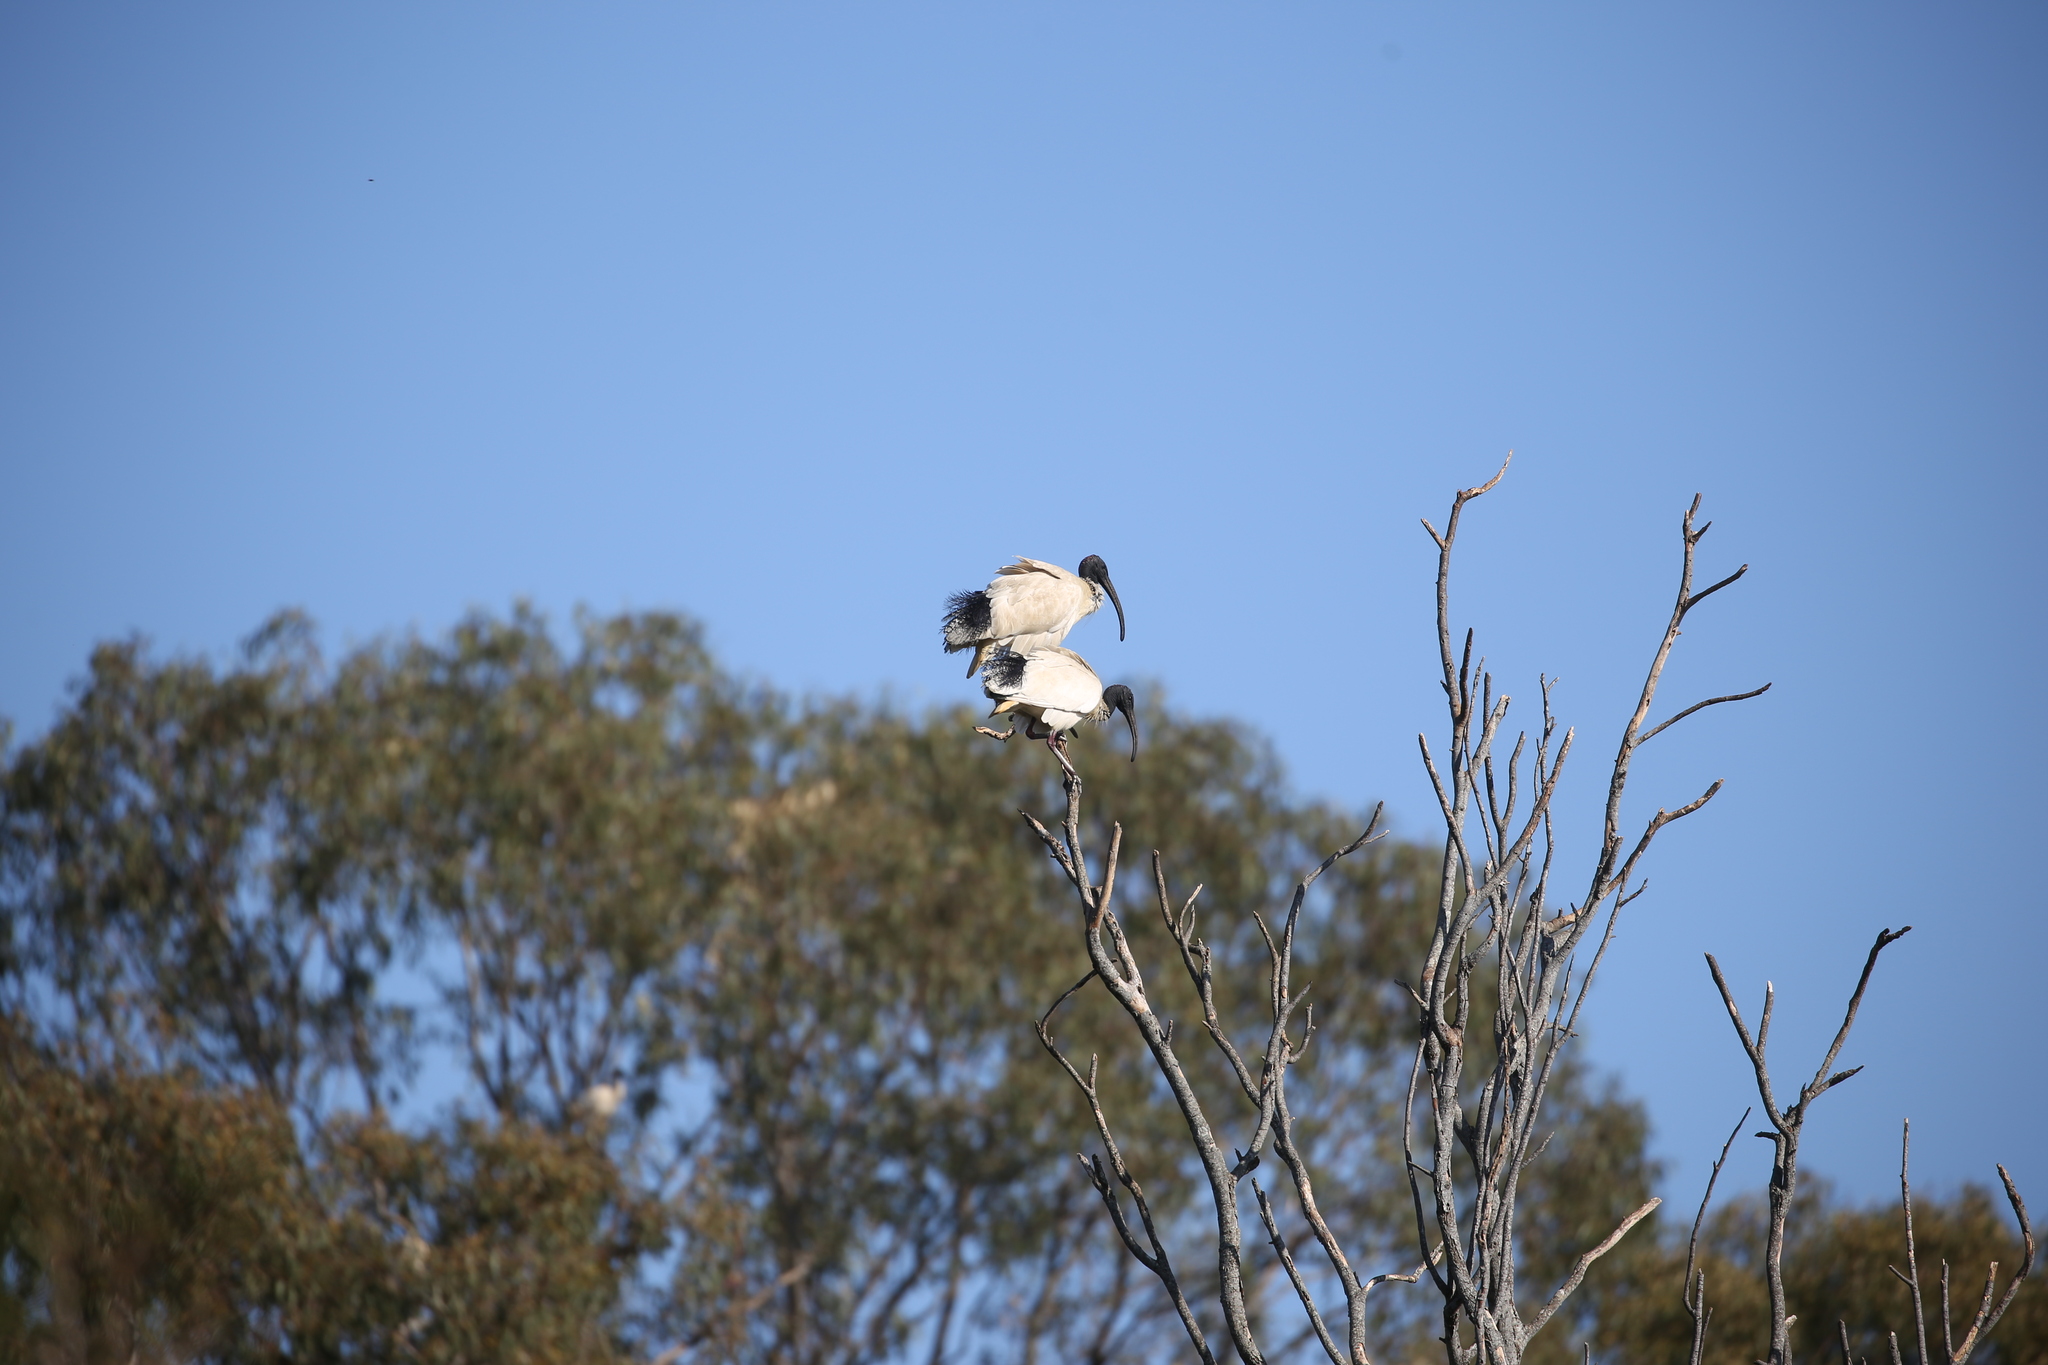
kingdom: Animalia
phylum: Chordata
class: Aves
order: Pelecaniformes
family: Threskiornithidae
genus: Threskiornis
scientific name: Threskiornis molucca
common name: Australian white ibis
